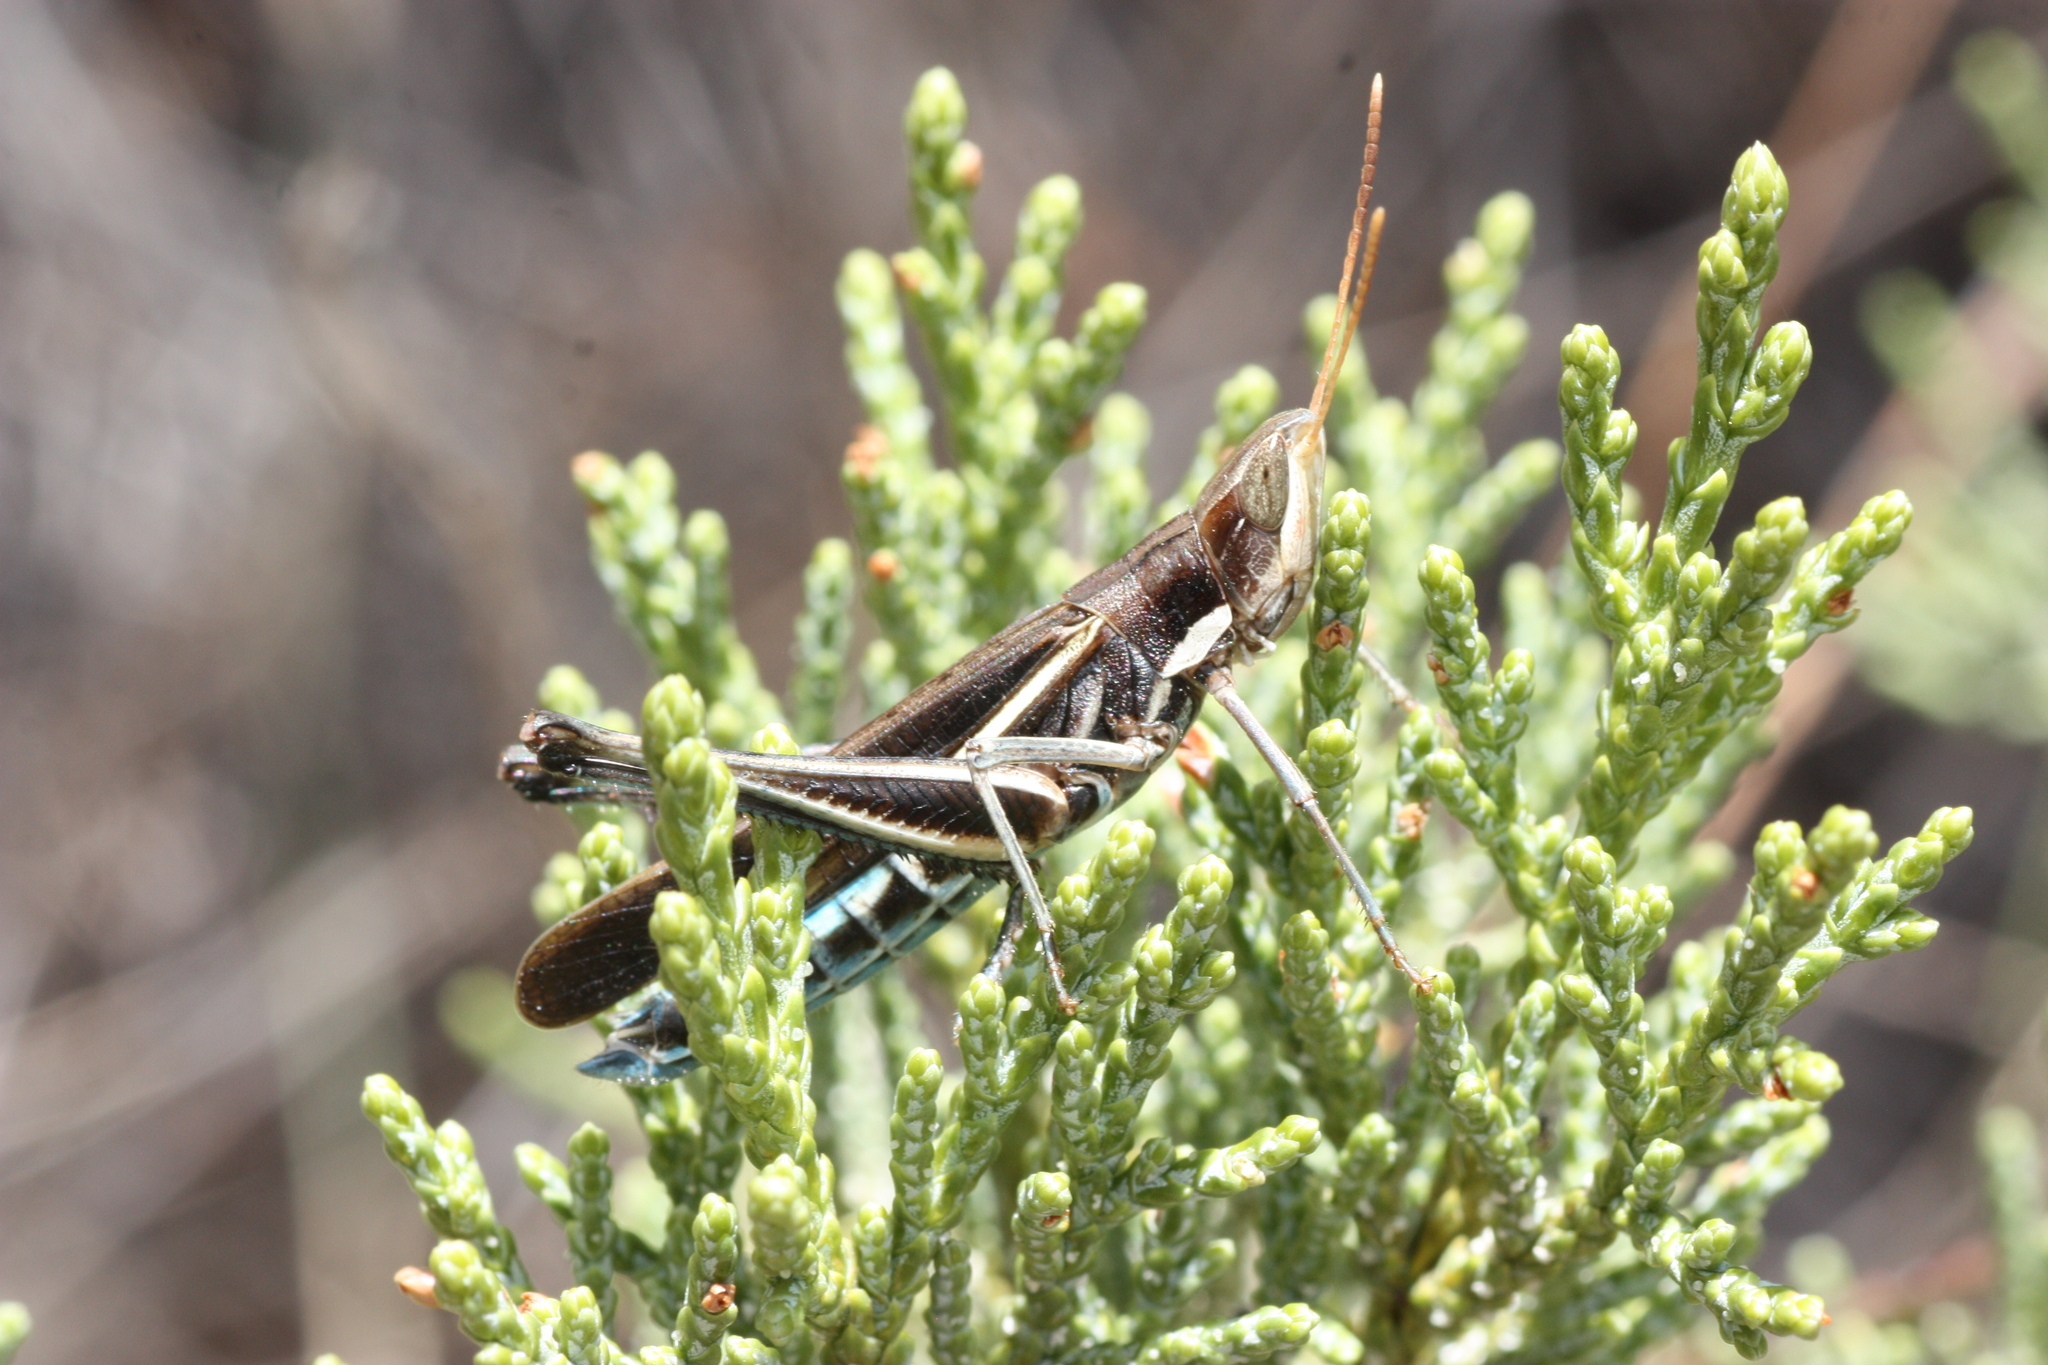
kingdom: Animalia
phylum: Arthropoda
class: Insecta
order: Orthoptera
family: Acrididae
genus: Syrbula
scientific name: Syrbula montezuma
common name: Montezuma's grasshopper
